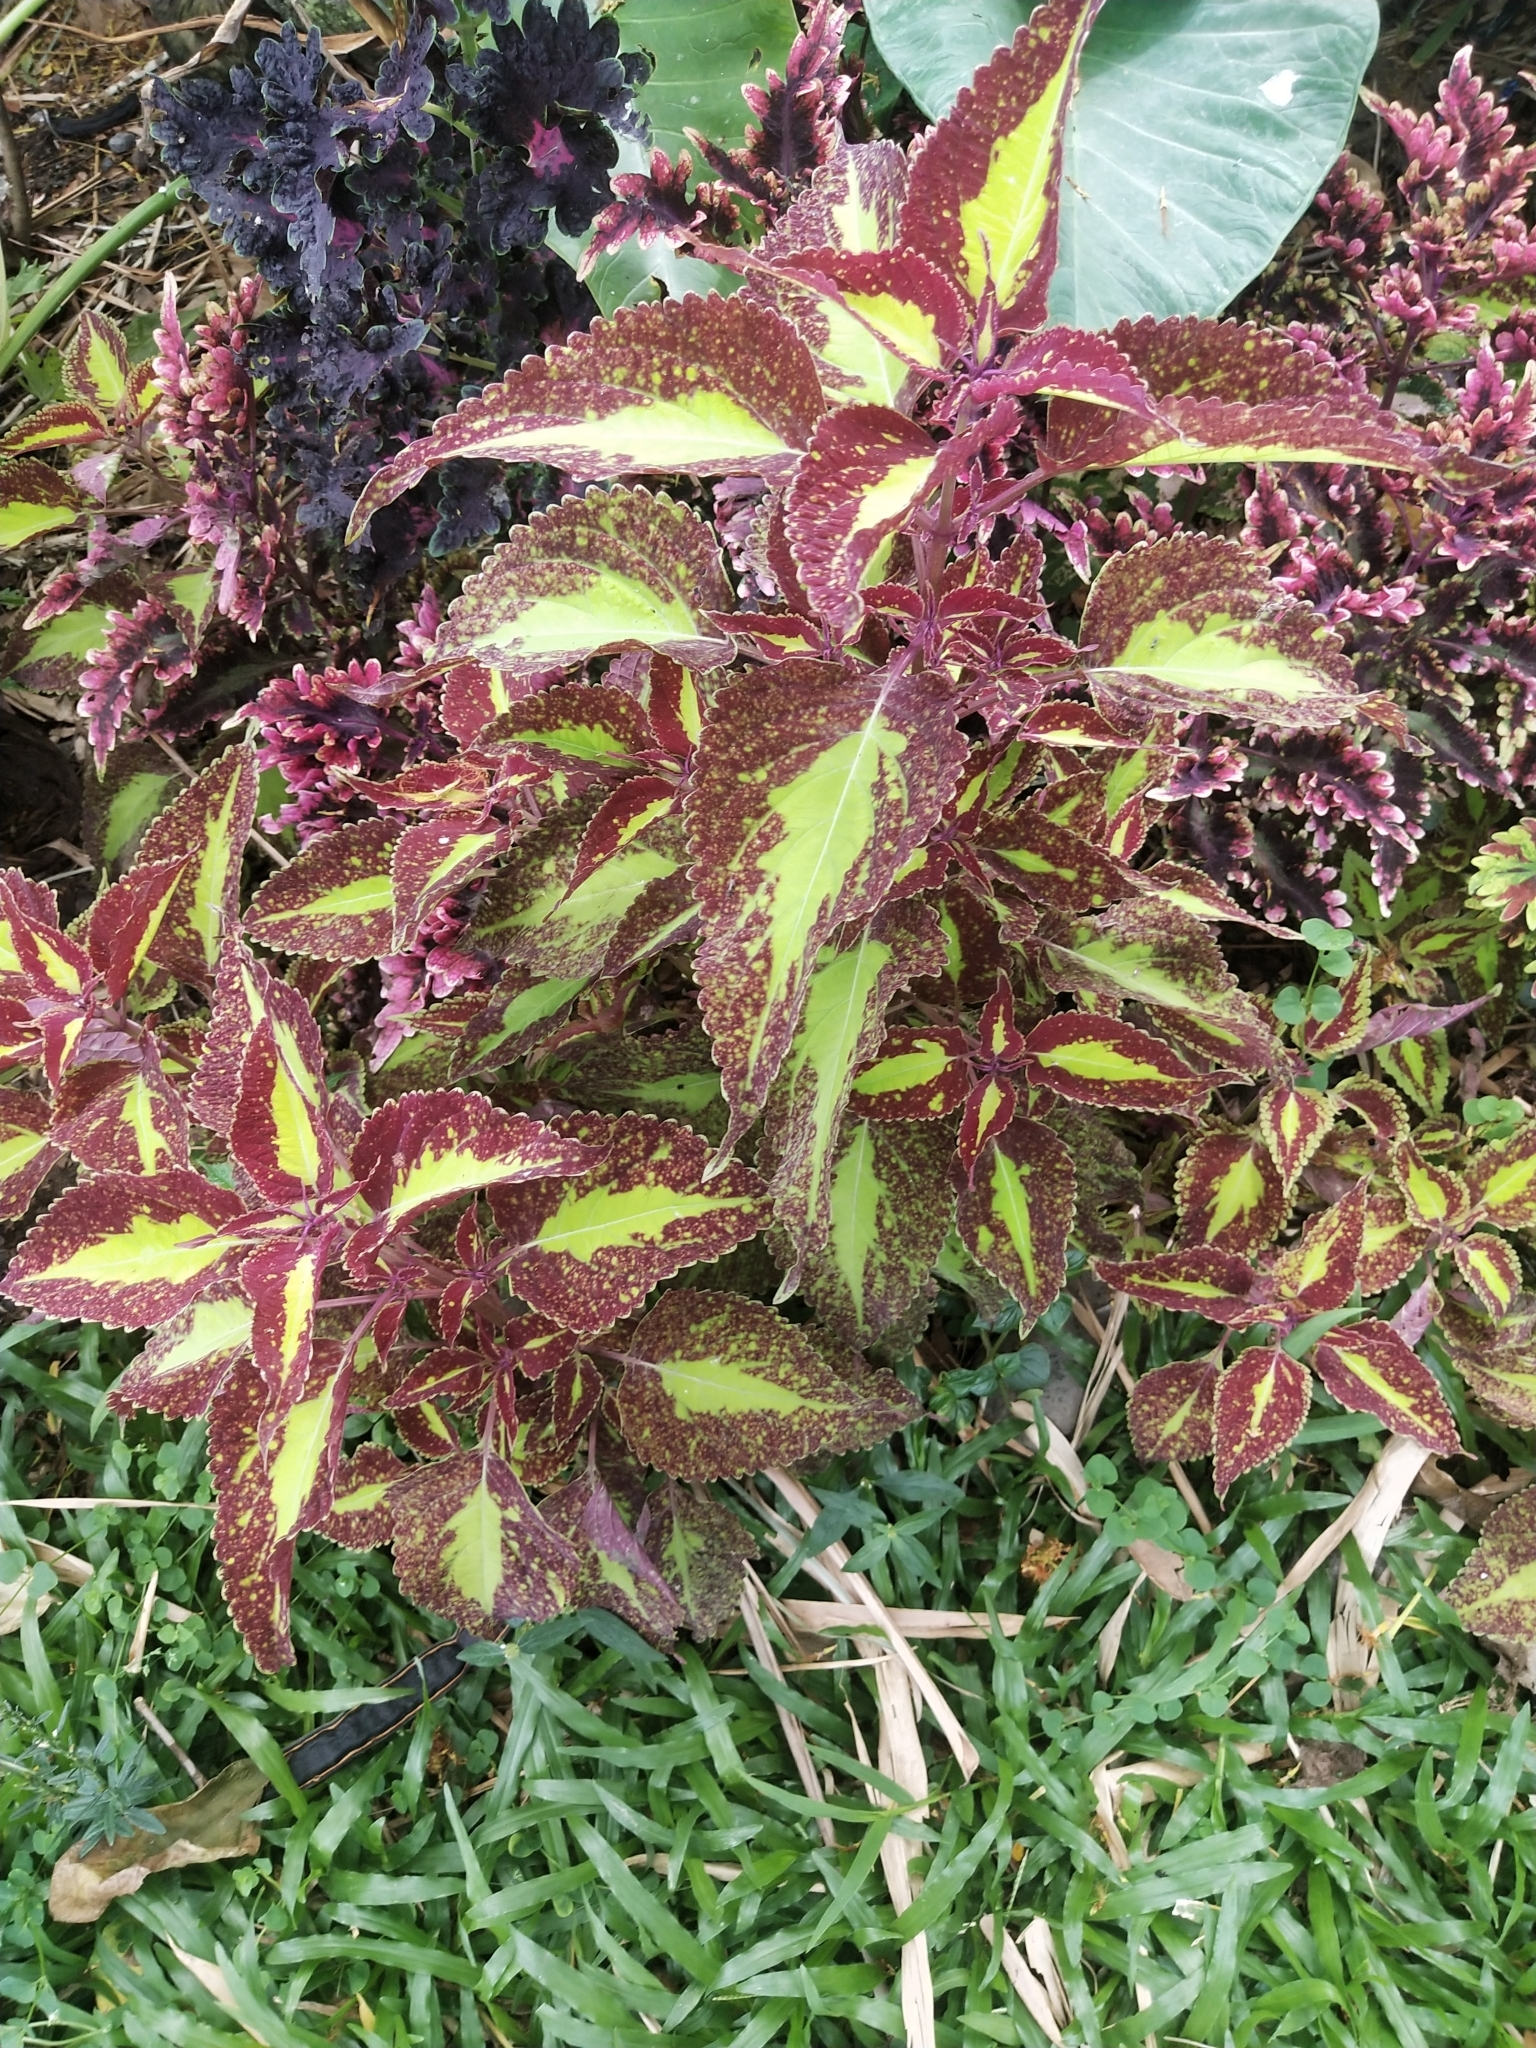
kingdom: Plantae
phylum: Tracheophyta
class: Magnoliopsida
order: Lamiales
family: Lamiaceae
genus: Coleus
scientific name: Coleus scutellarioides
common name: Coleus
